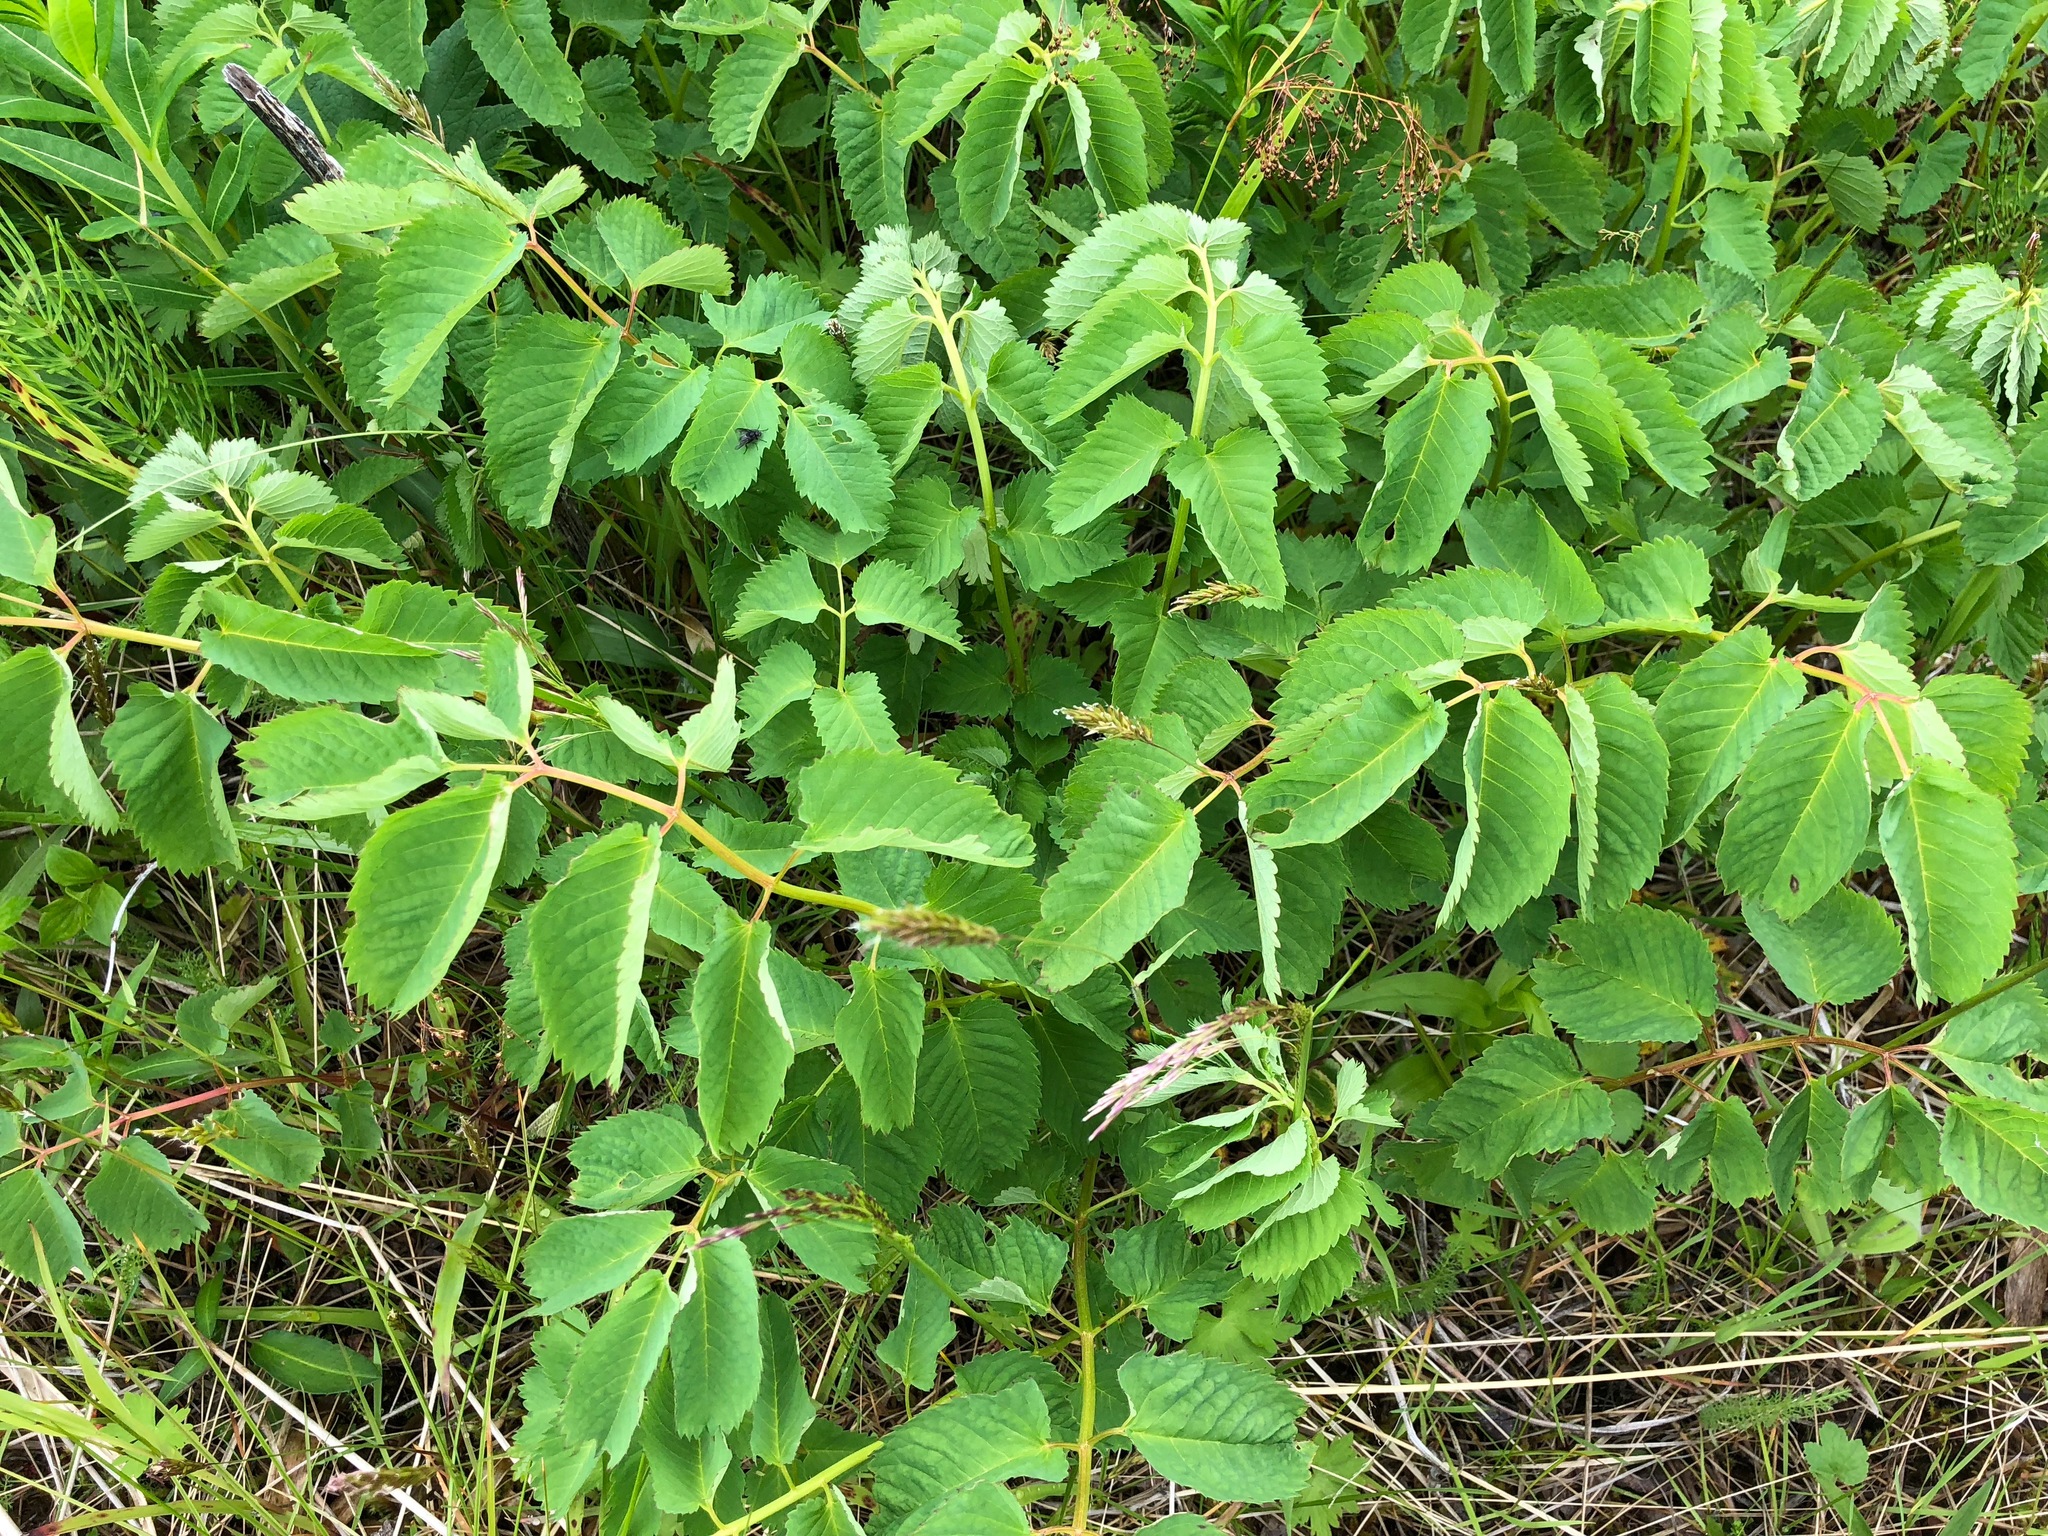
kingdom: Plantae
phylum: Tracheophyta
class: Magnoliopsida
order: Rosales
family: Rosaceae
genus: Sanguisorba
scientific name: Sanguisorba stipulata
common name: Sitka burnet
